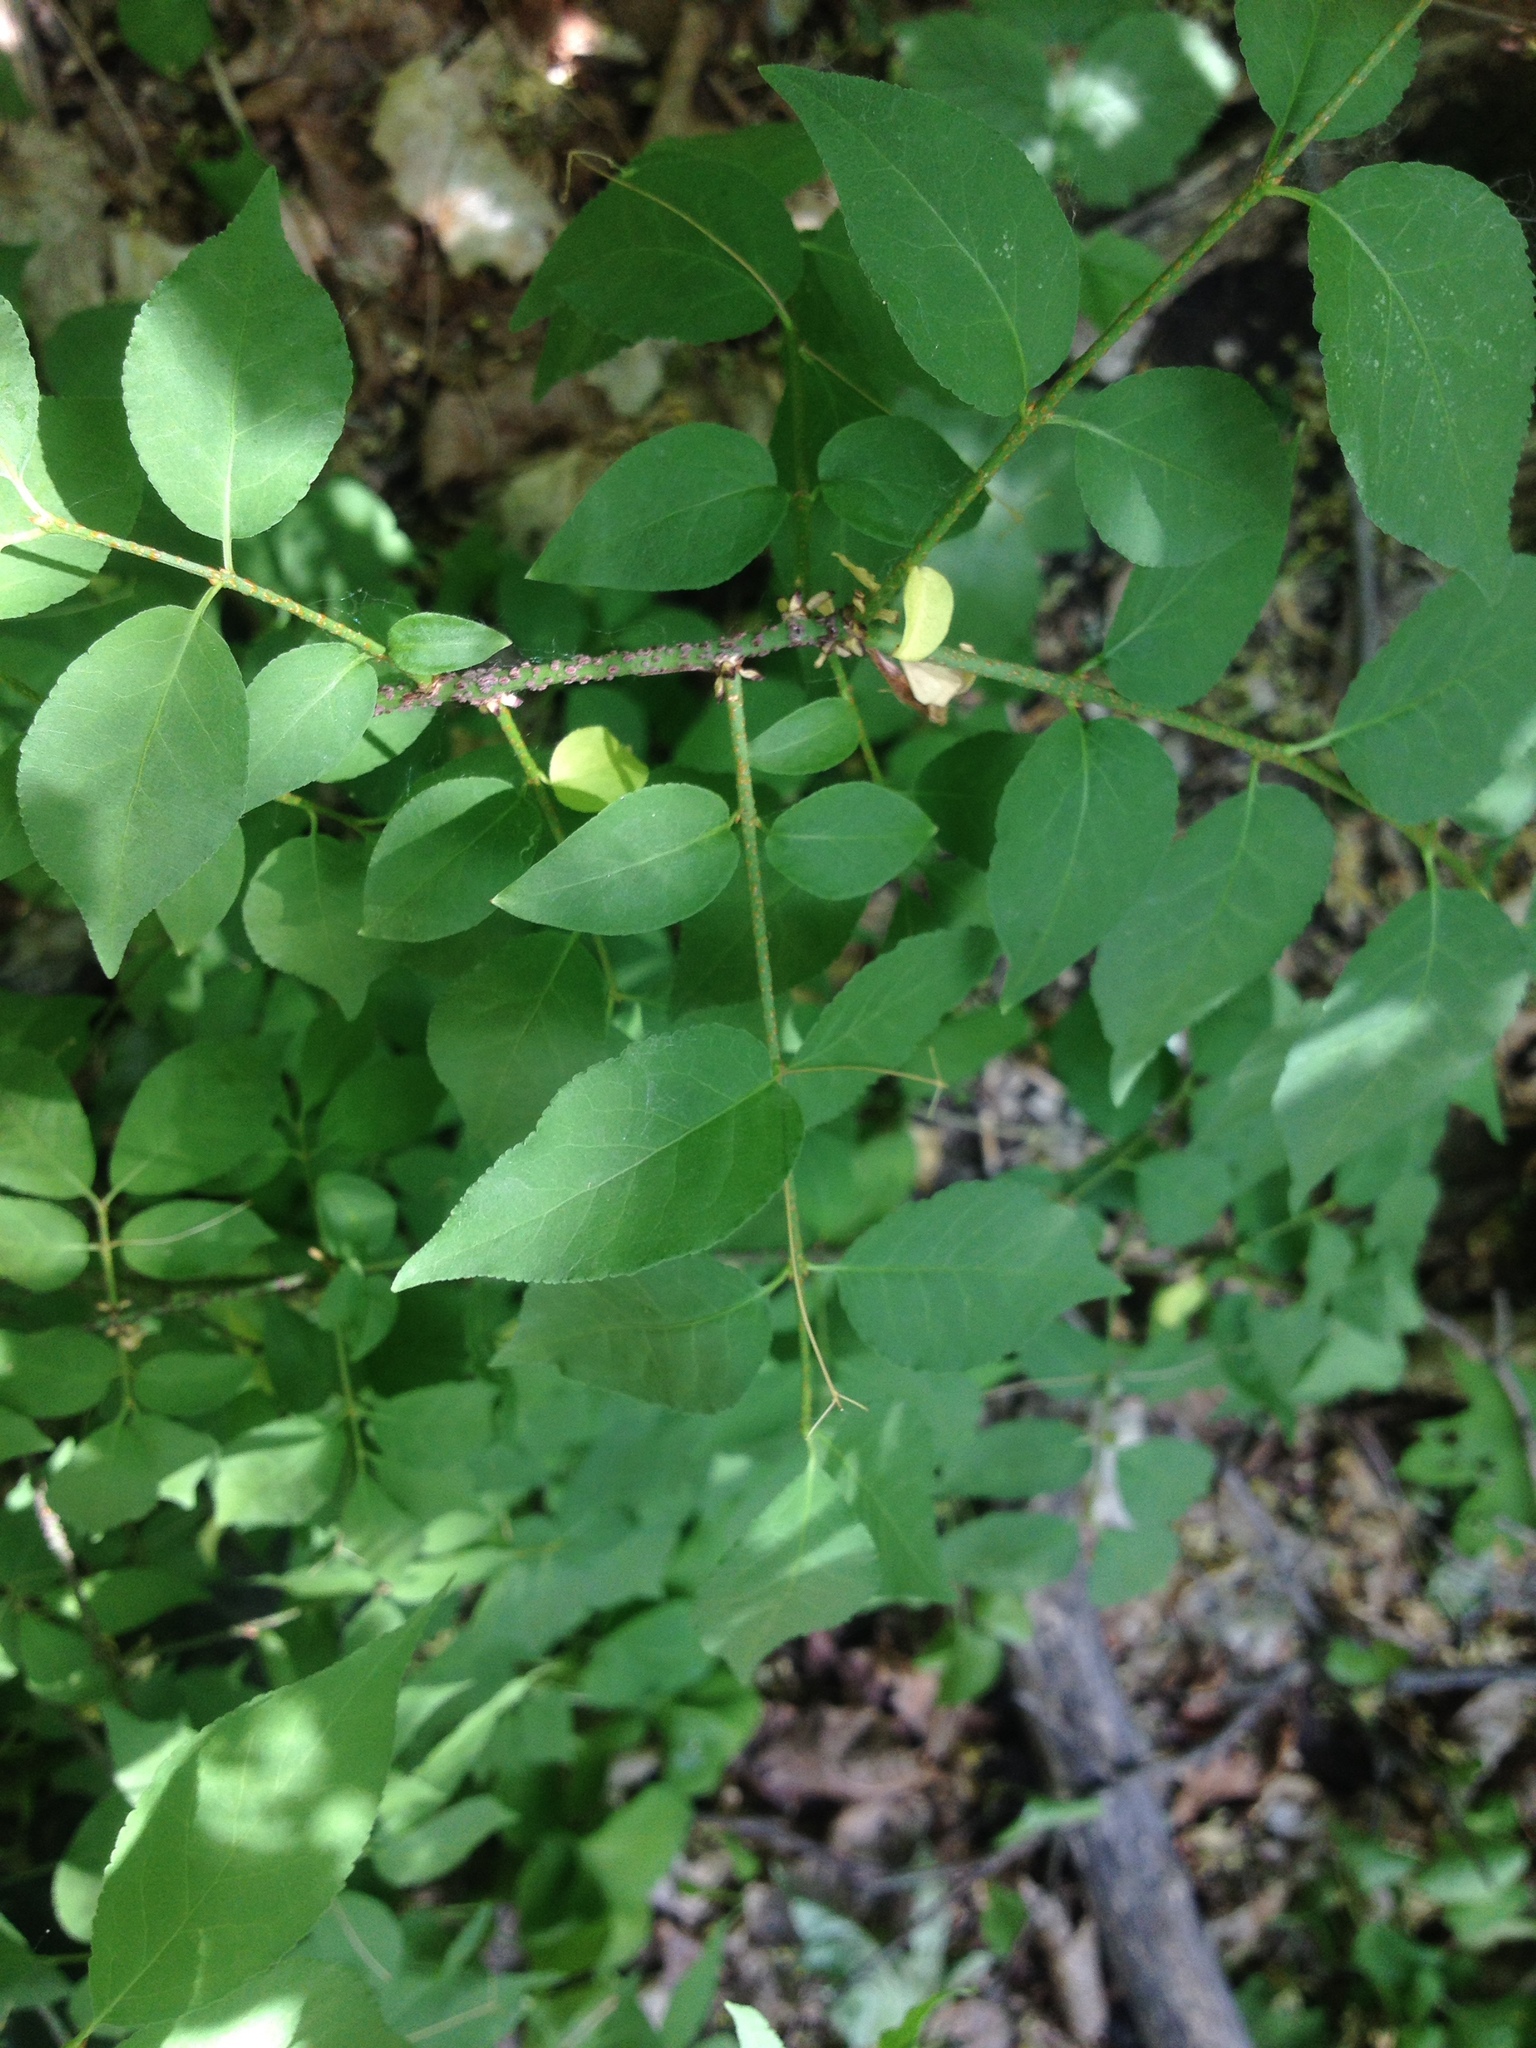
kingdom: Plantae
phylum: Tracheophyta
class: Magnoliopsida
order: Celastrales
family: Celastraceae
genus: Euonymus
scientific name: Euonymus verrucosus
